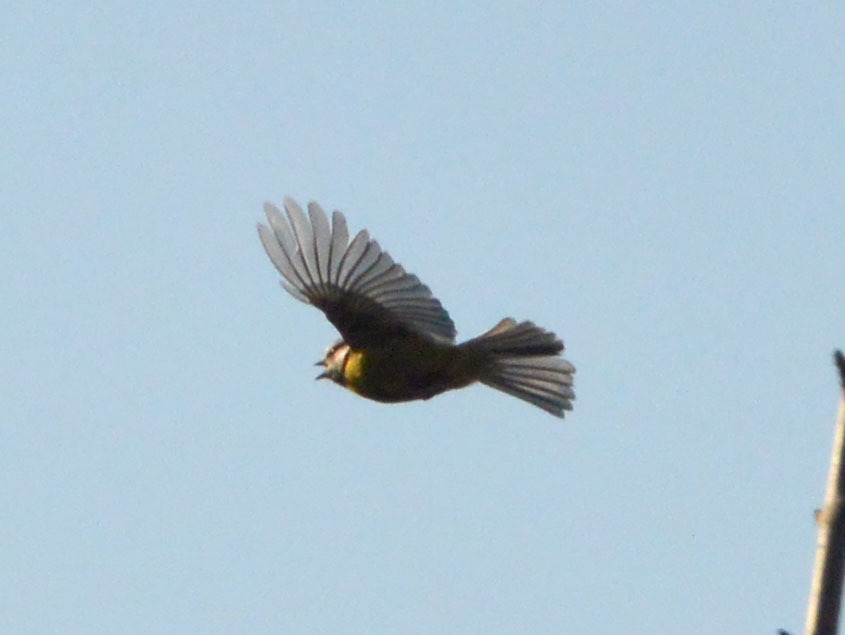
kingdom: Animalia
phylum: Chordata
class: Aves
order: Passeriformes
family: Paridae
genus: Cyanistes
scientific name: Cyanistes caeruleus
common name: Eurasian blue tit
